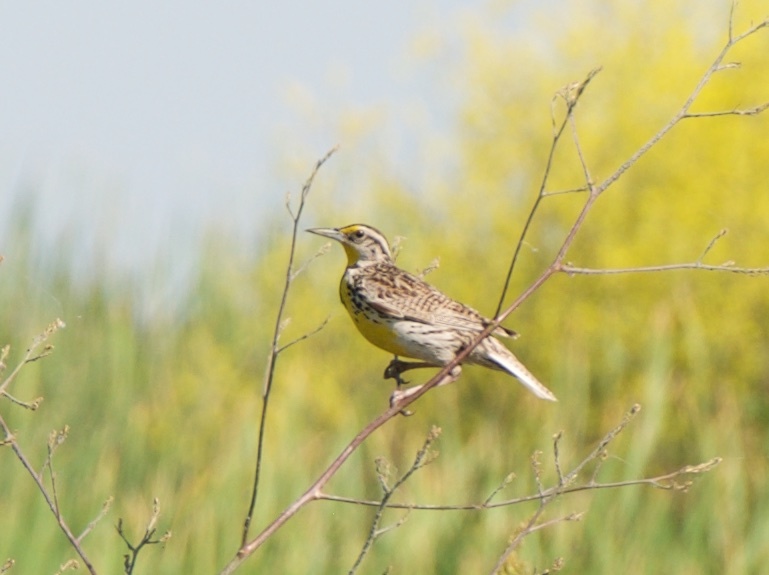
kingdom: Animalia
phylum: Chordata
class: Aves
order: Passeriformes
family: Icteridae
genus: Sturnella
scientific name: Sturnella neglecta
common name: Western meadowlark
